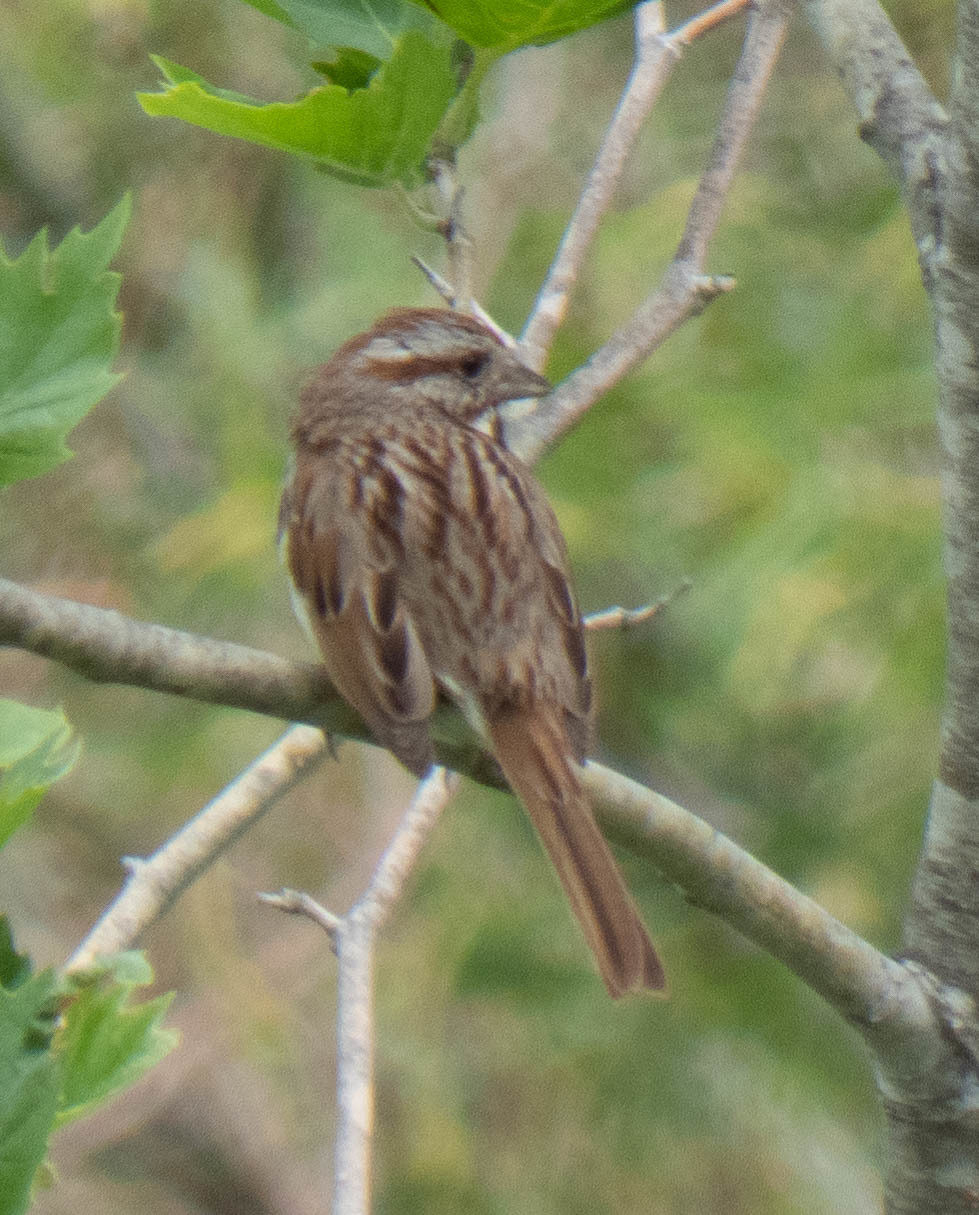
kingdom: Animalia
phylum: Chordata
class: Aves
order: Passeriformes
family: Passerellidae
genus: Melospiza
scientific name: Melospiza melodia
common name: Song sparrow
